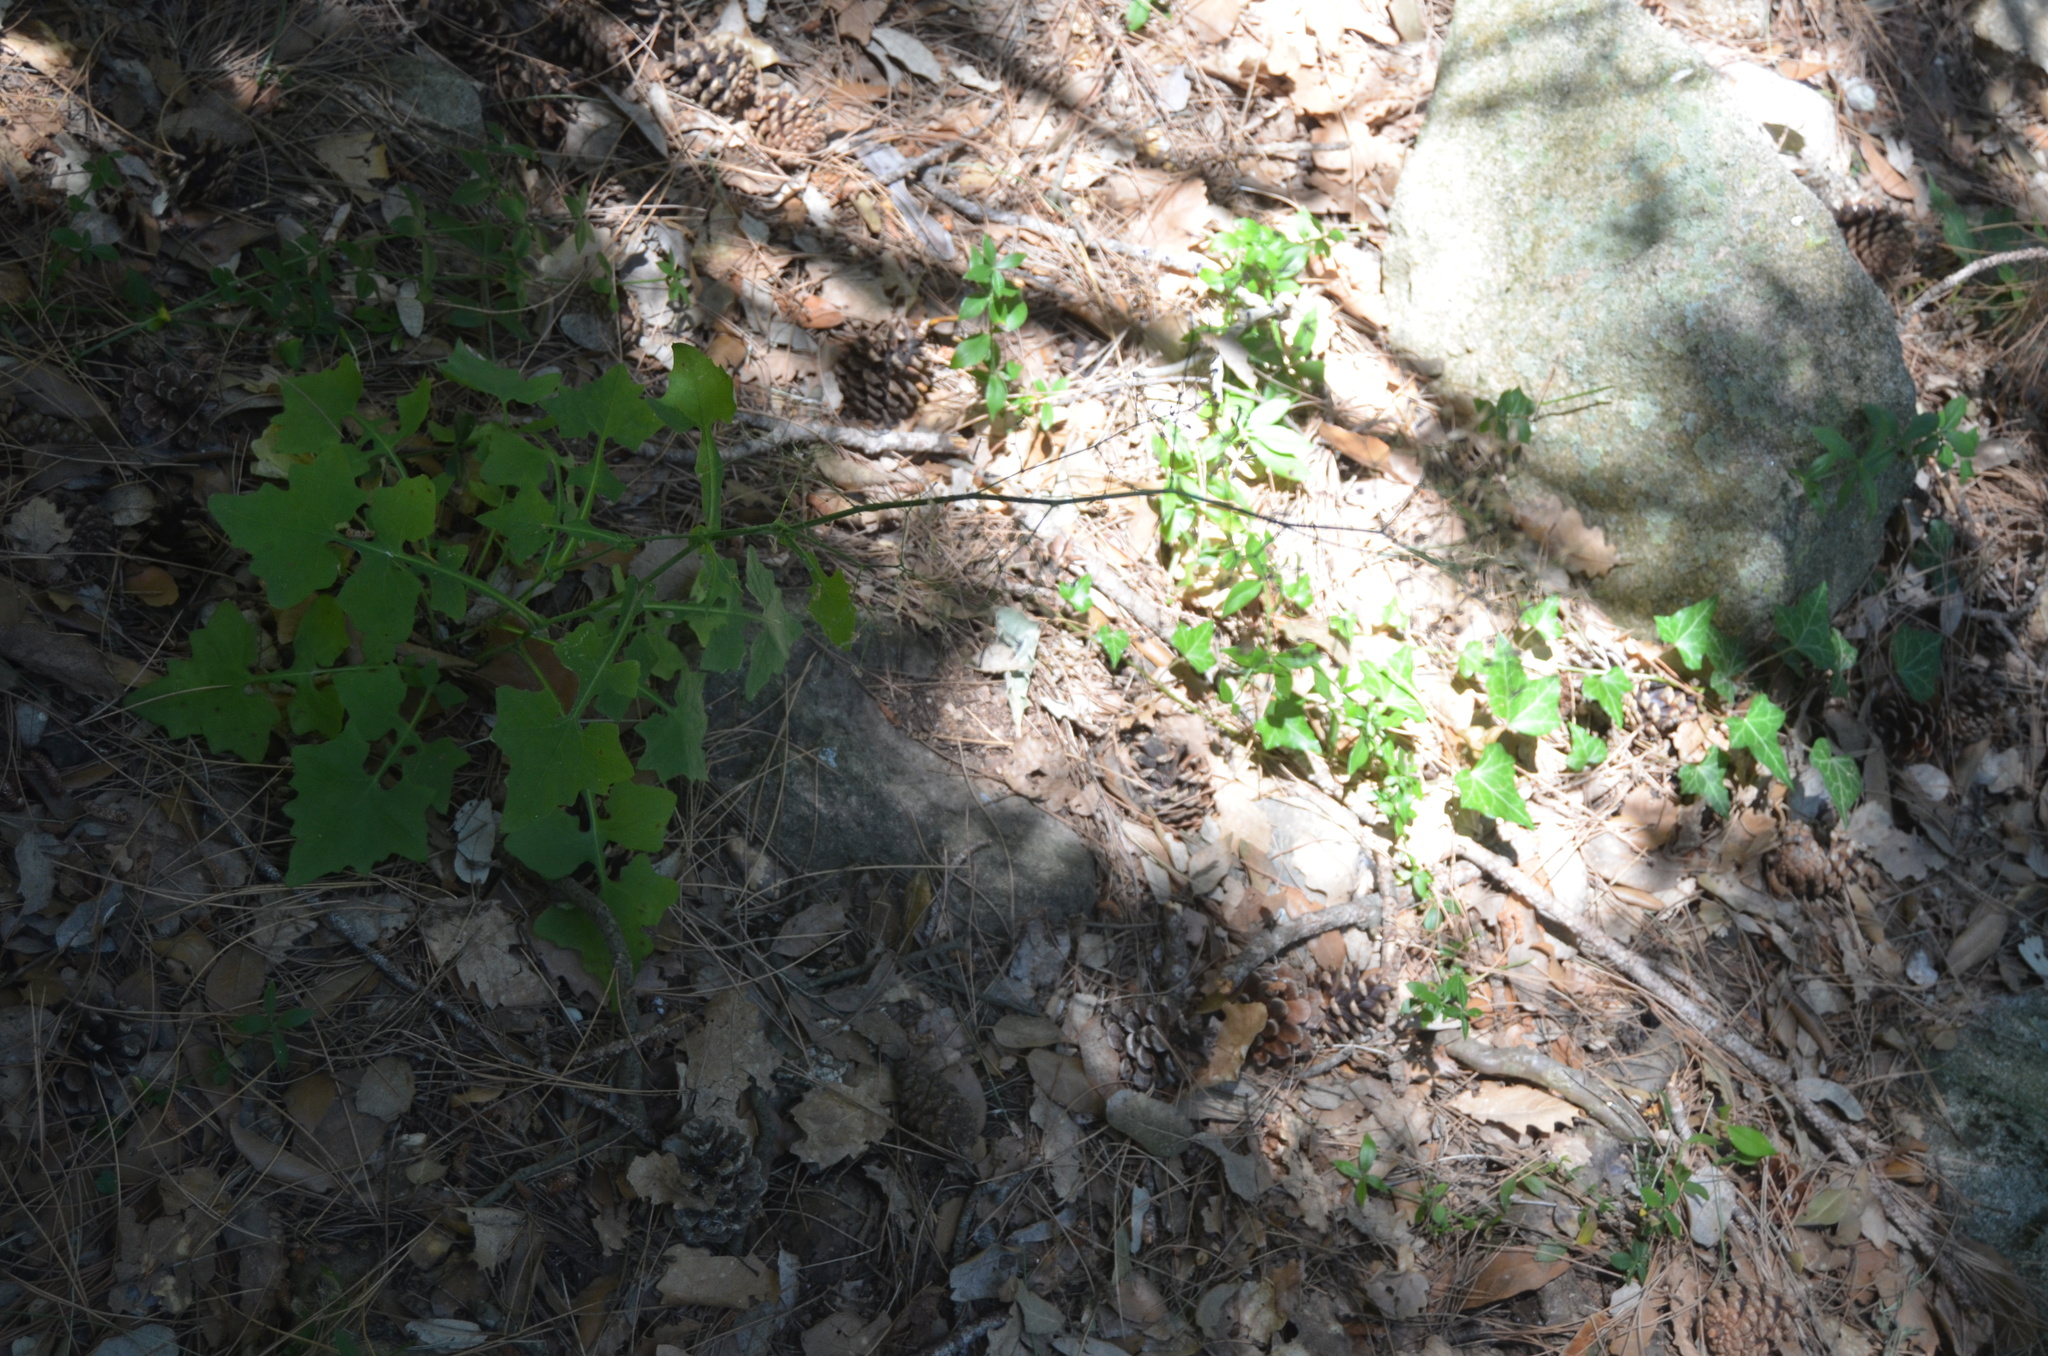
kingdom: Plantae
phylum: Tracheophyta
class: Magnoliopsida
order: Asterales
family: Asteraceae
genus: Mycelis
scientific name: Mycelis muralis
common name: Wall lettuce
